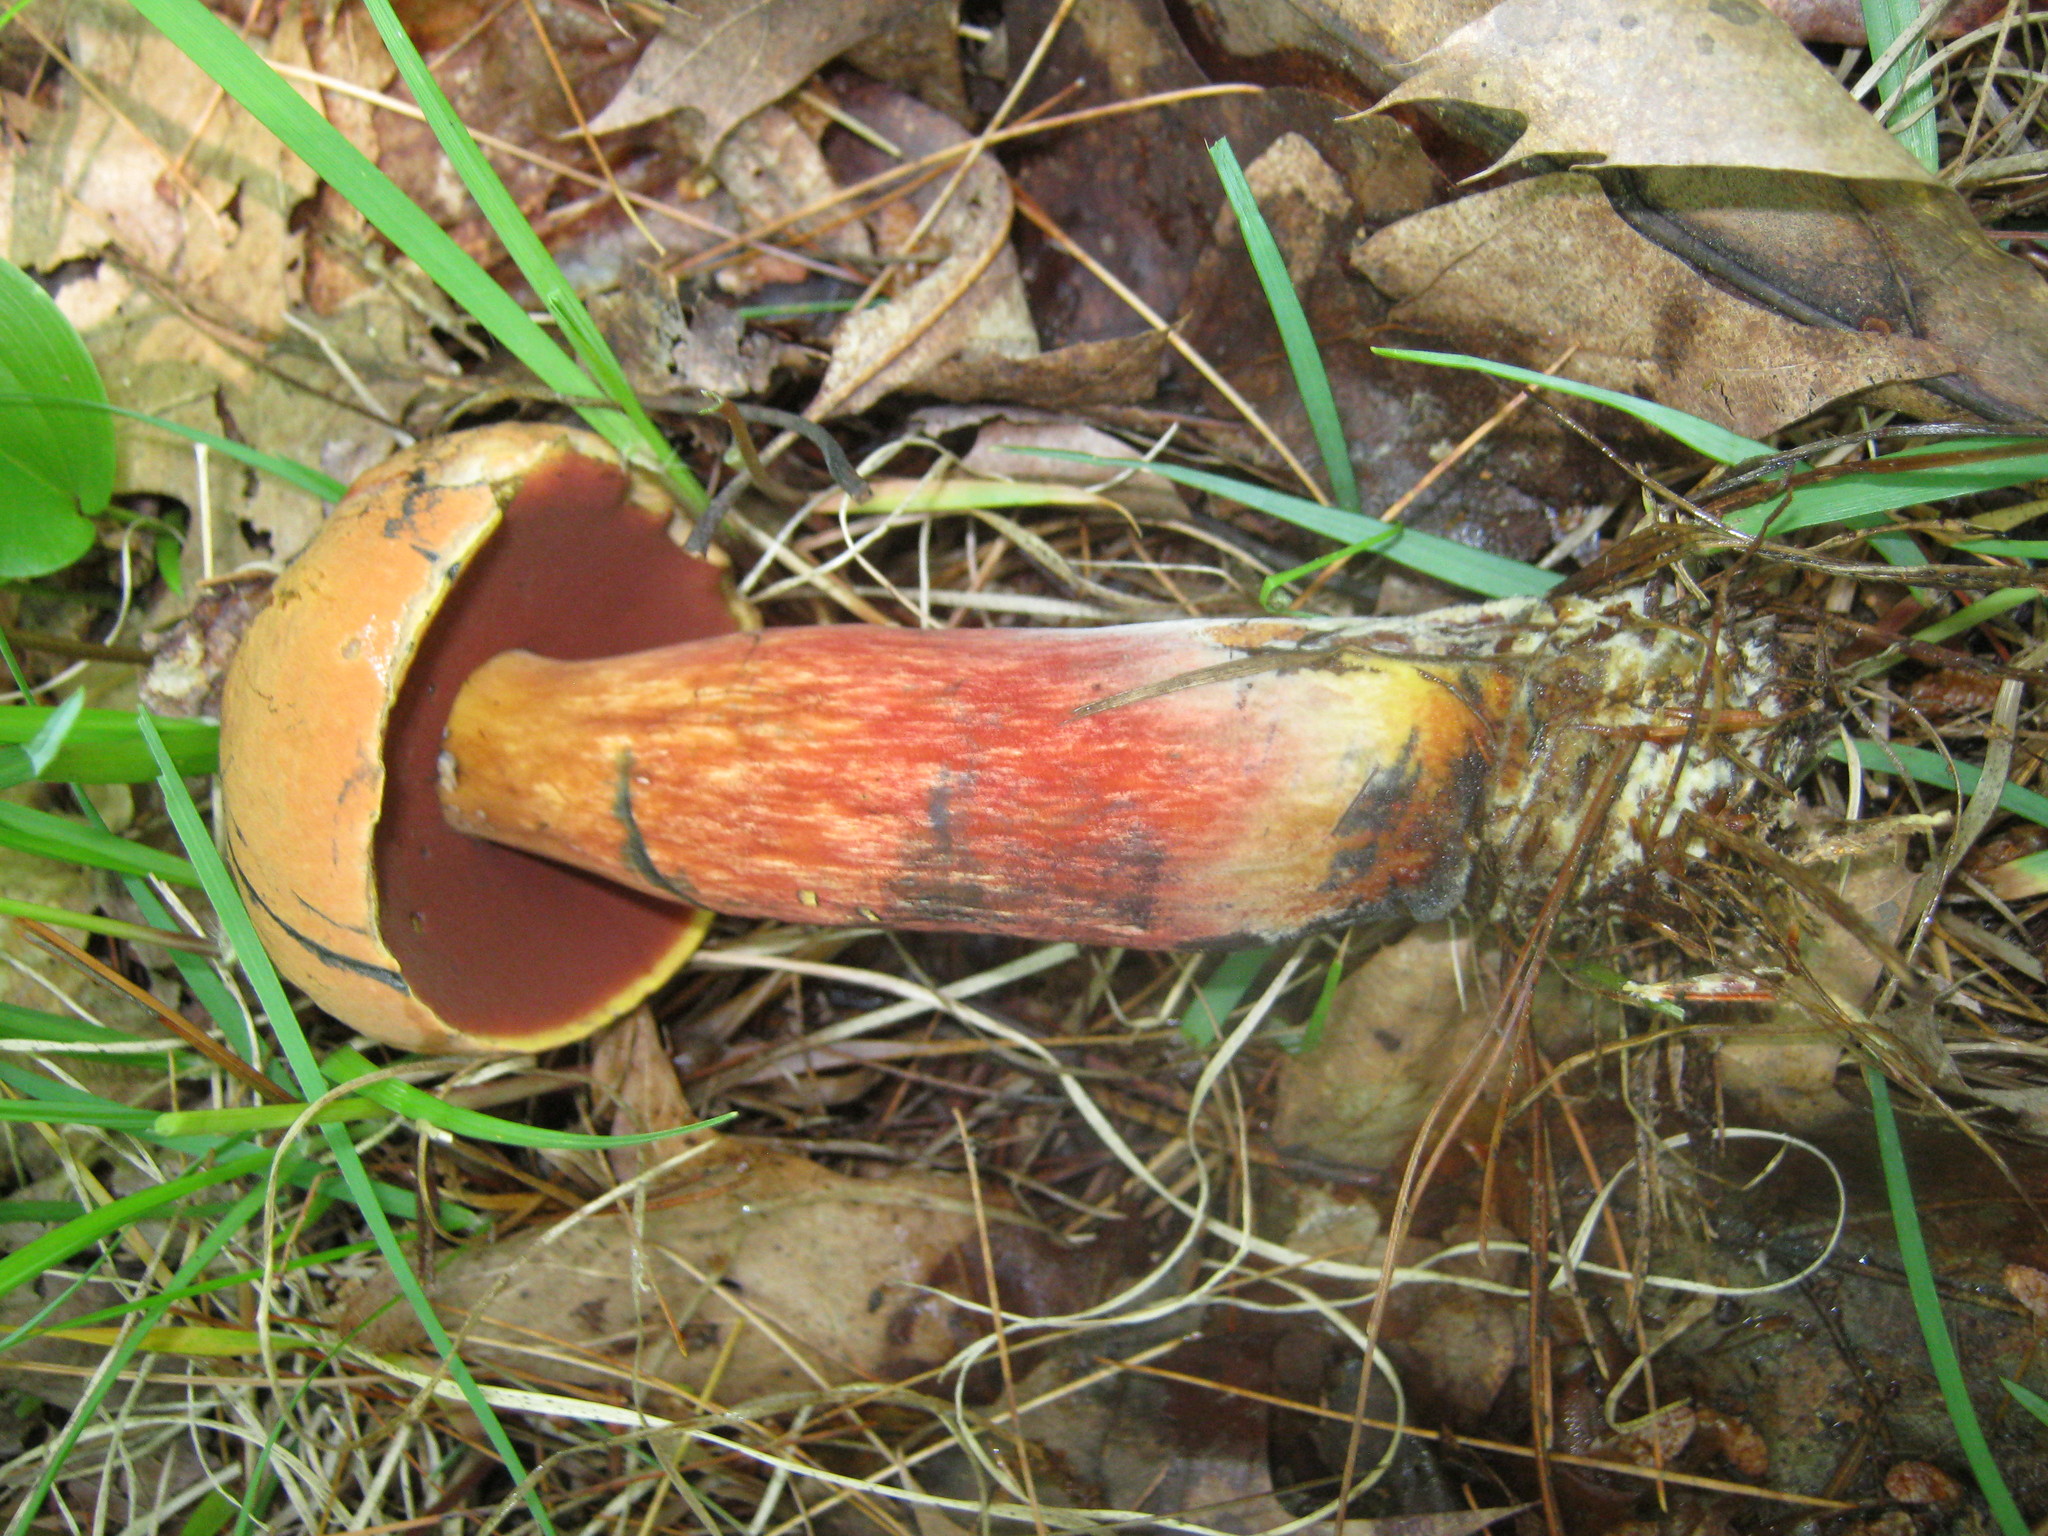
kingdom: Fungi
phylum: Basidiomycota
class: Agaricomycetes
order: Boletales
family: Boletaceae
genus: Boletus
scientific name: Boletus subvelutipes
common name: Red-mouth bolete
